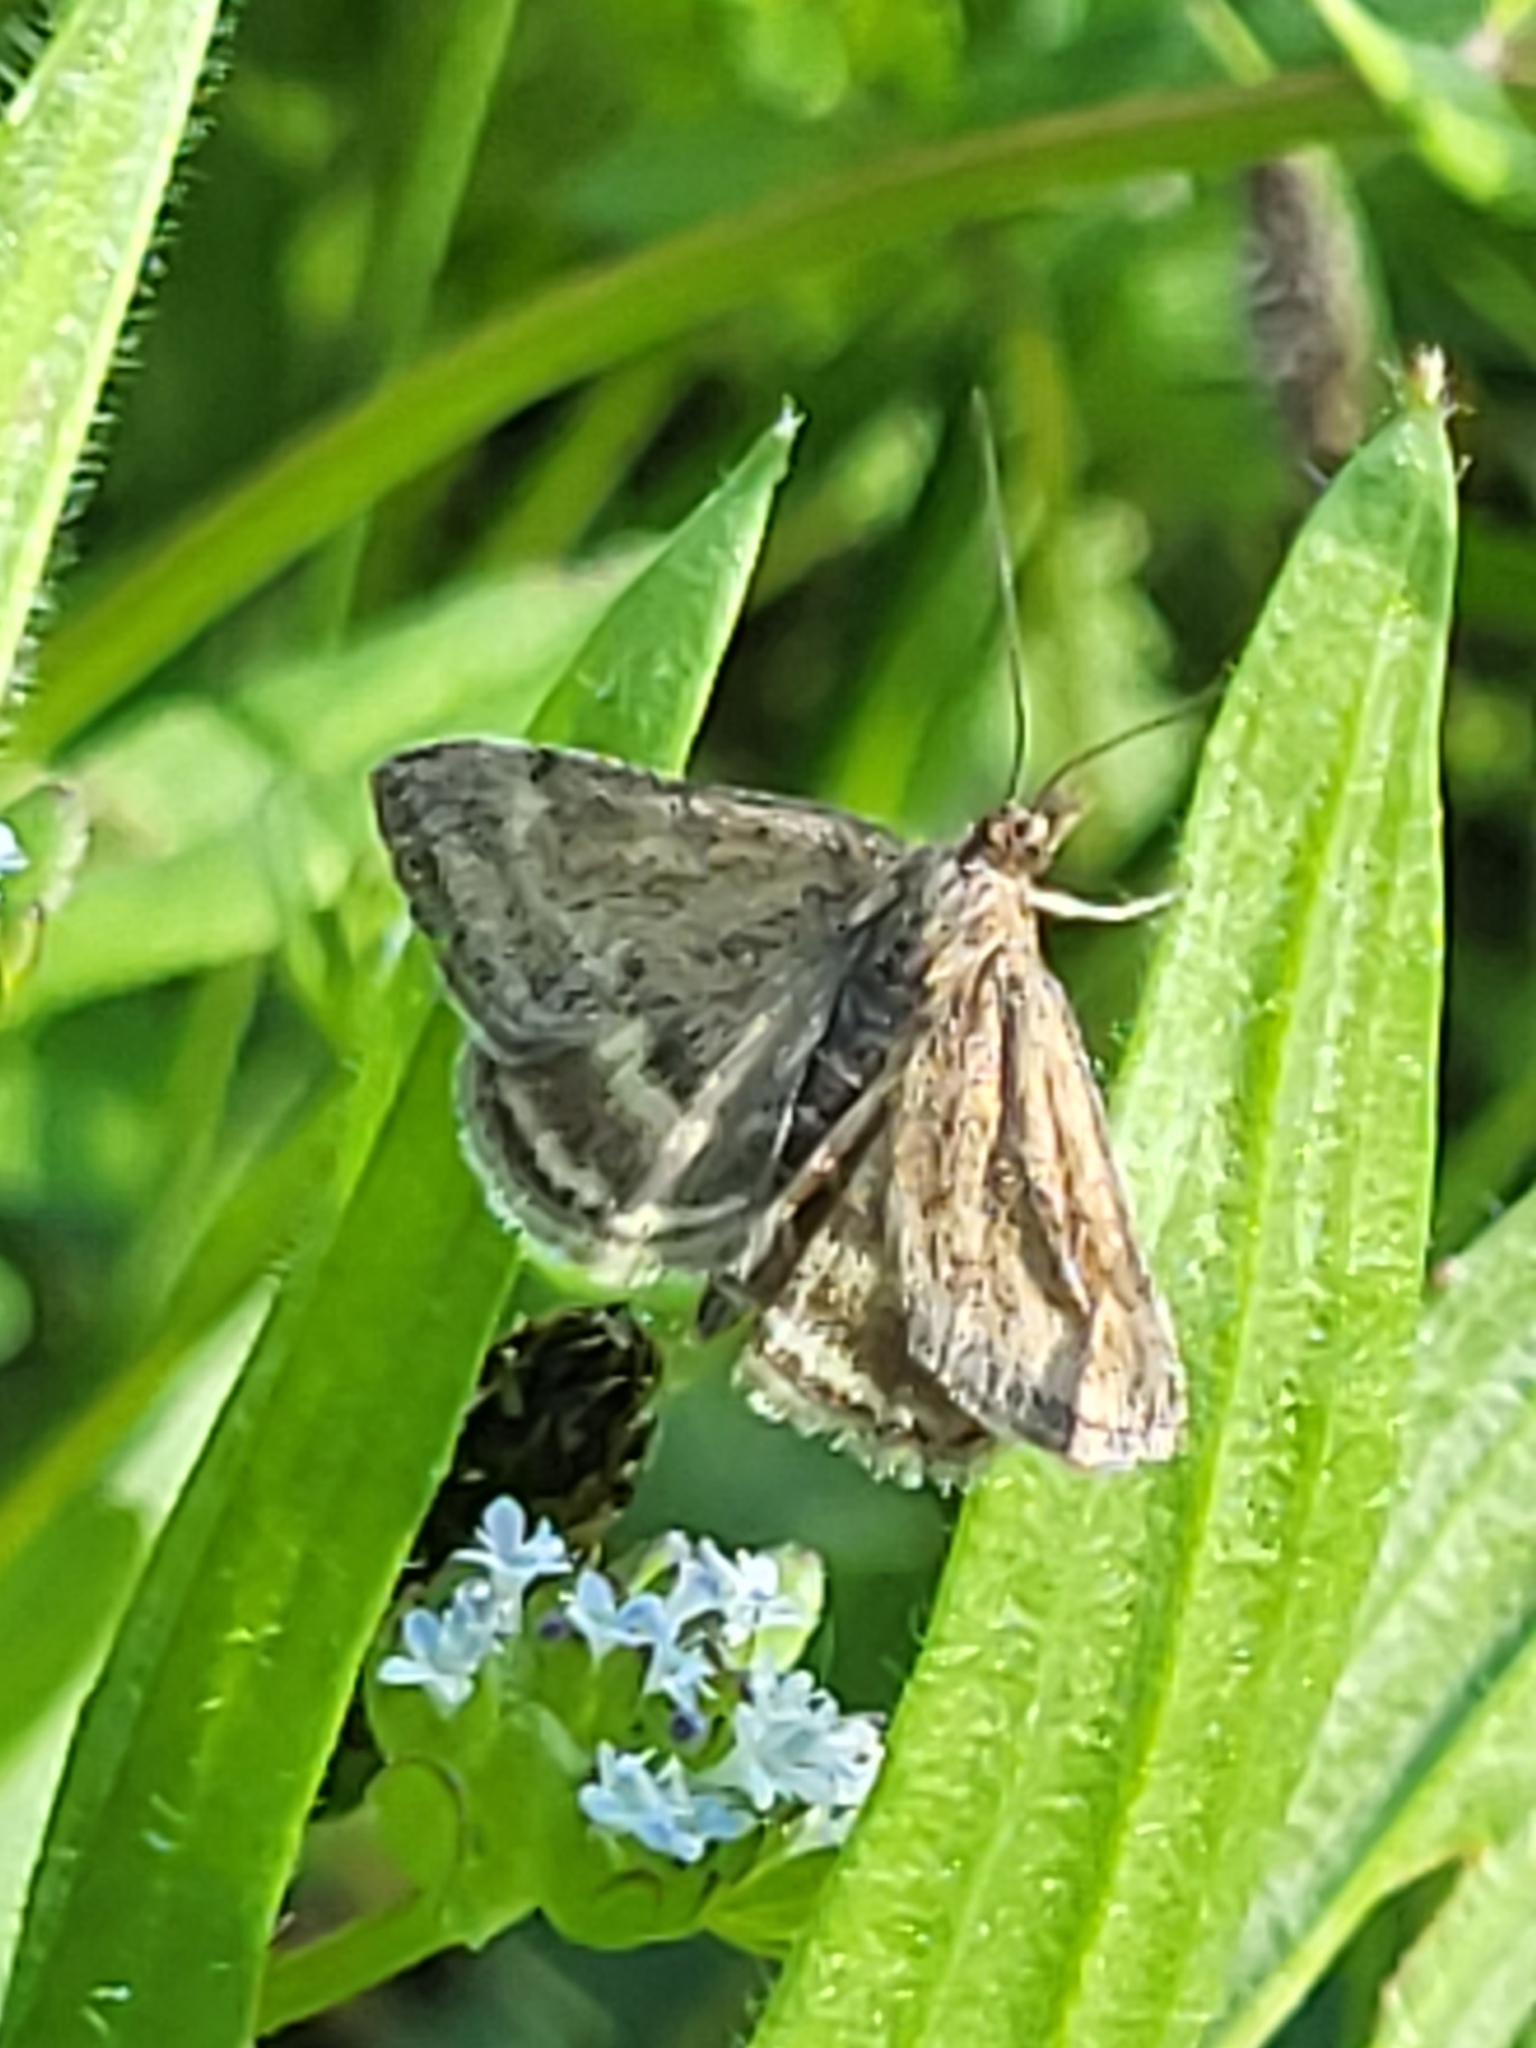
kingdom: Animalia
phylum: Arthropoda
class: Insecta
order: Lepidoptera
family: Crambidae
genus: Pyrausta
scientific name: Pyrausta despicata
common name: Straw-barred pearl
